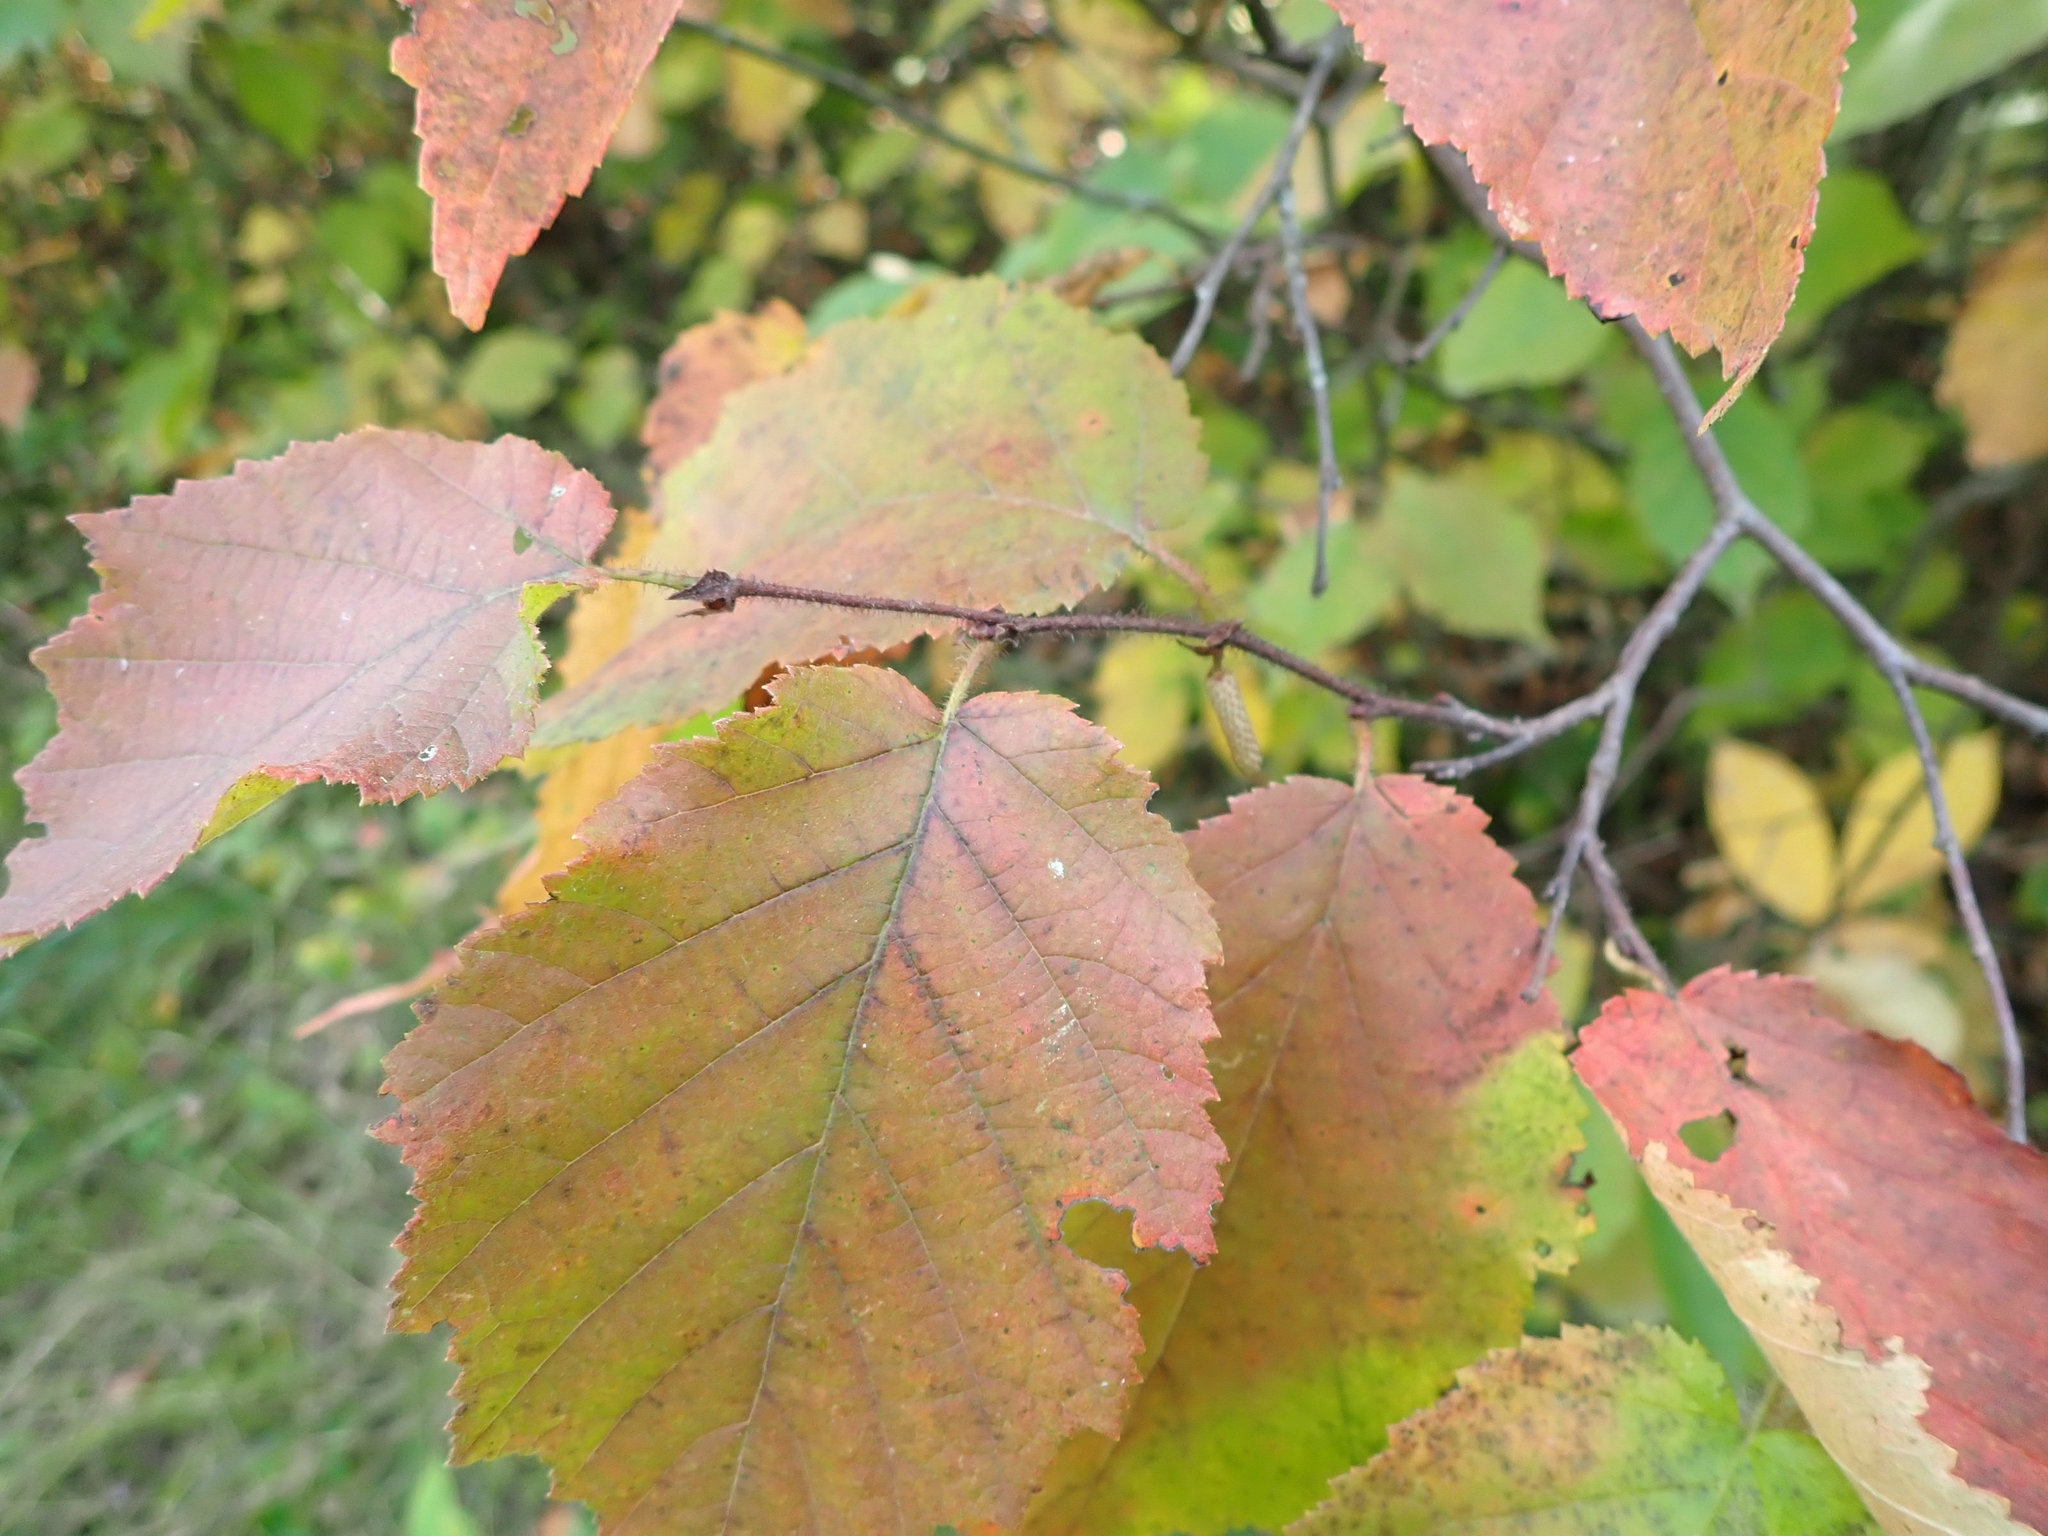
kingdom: Plantae
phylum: Tracheophyta
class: Magnoliopsida
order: Fagales
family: Betulaceae
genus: Corylus
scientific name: Corylus americana
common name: American hazel
